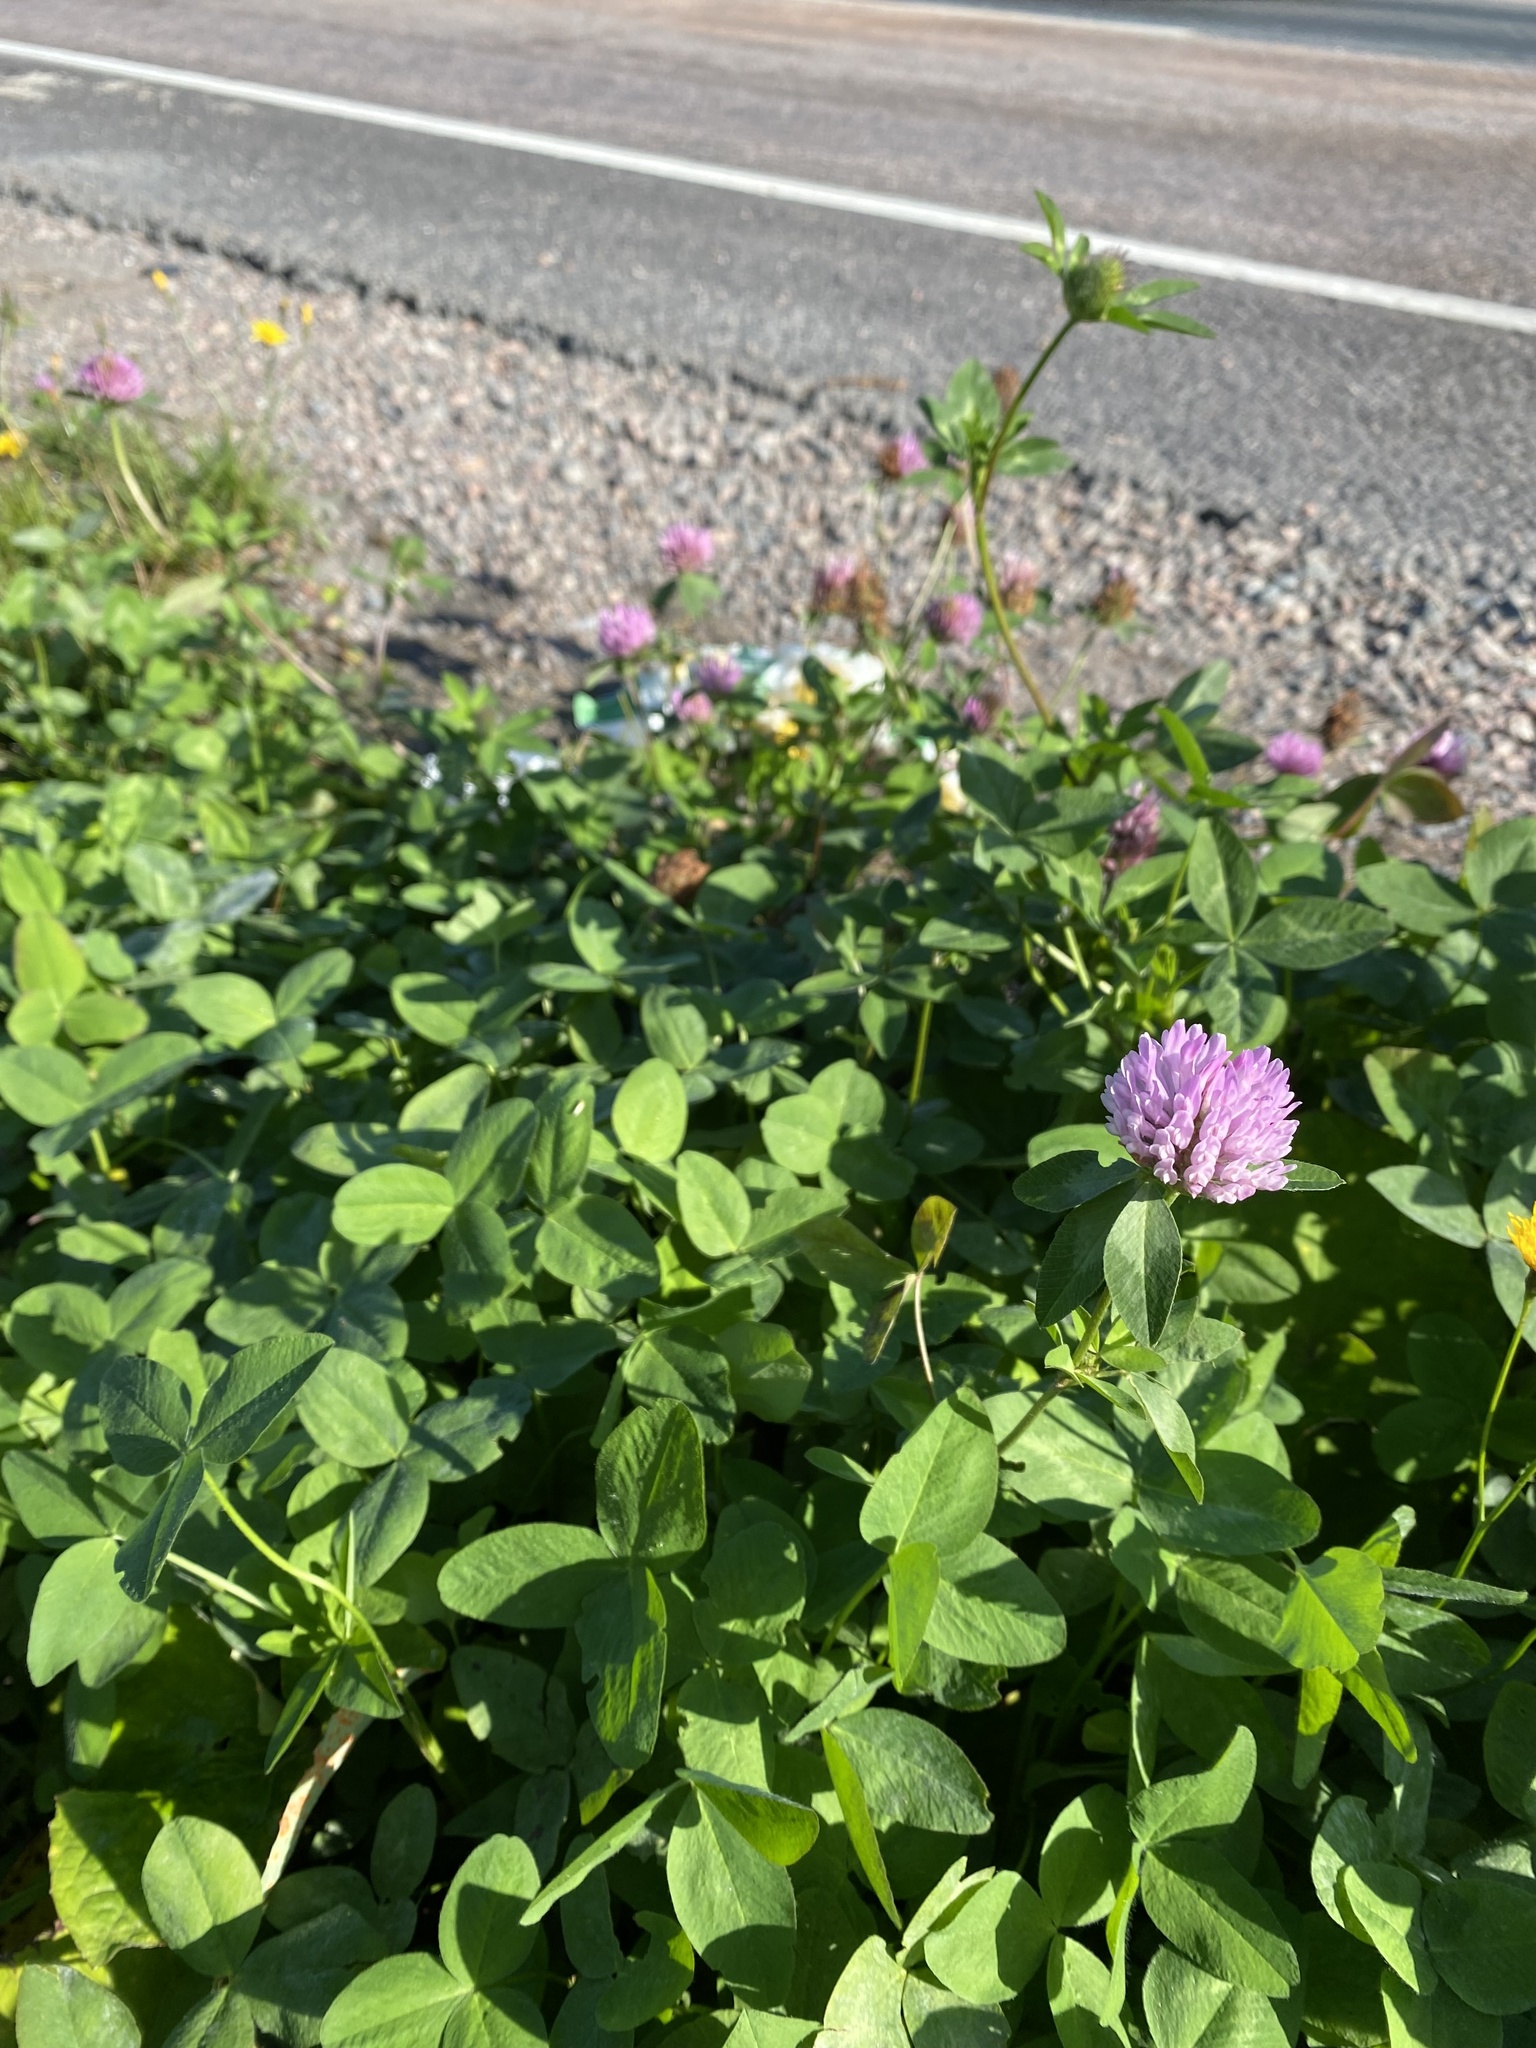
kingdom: Plantae
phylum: Tracheophyta
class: Magnoliopsida
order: Fabales
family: Fabaceae
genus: Trifolium
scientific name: Trifolium pratense
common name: Red clover
